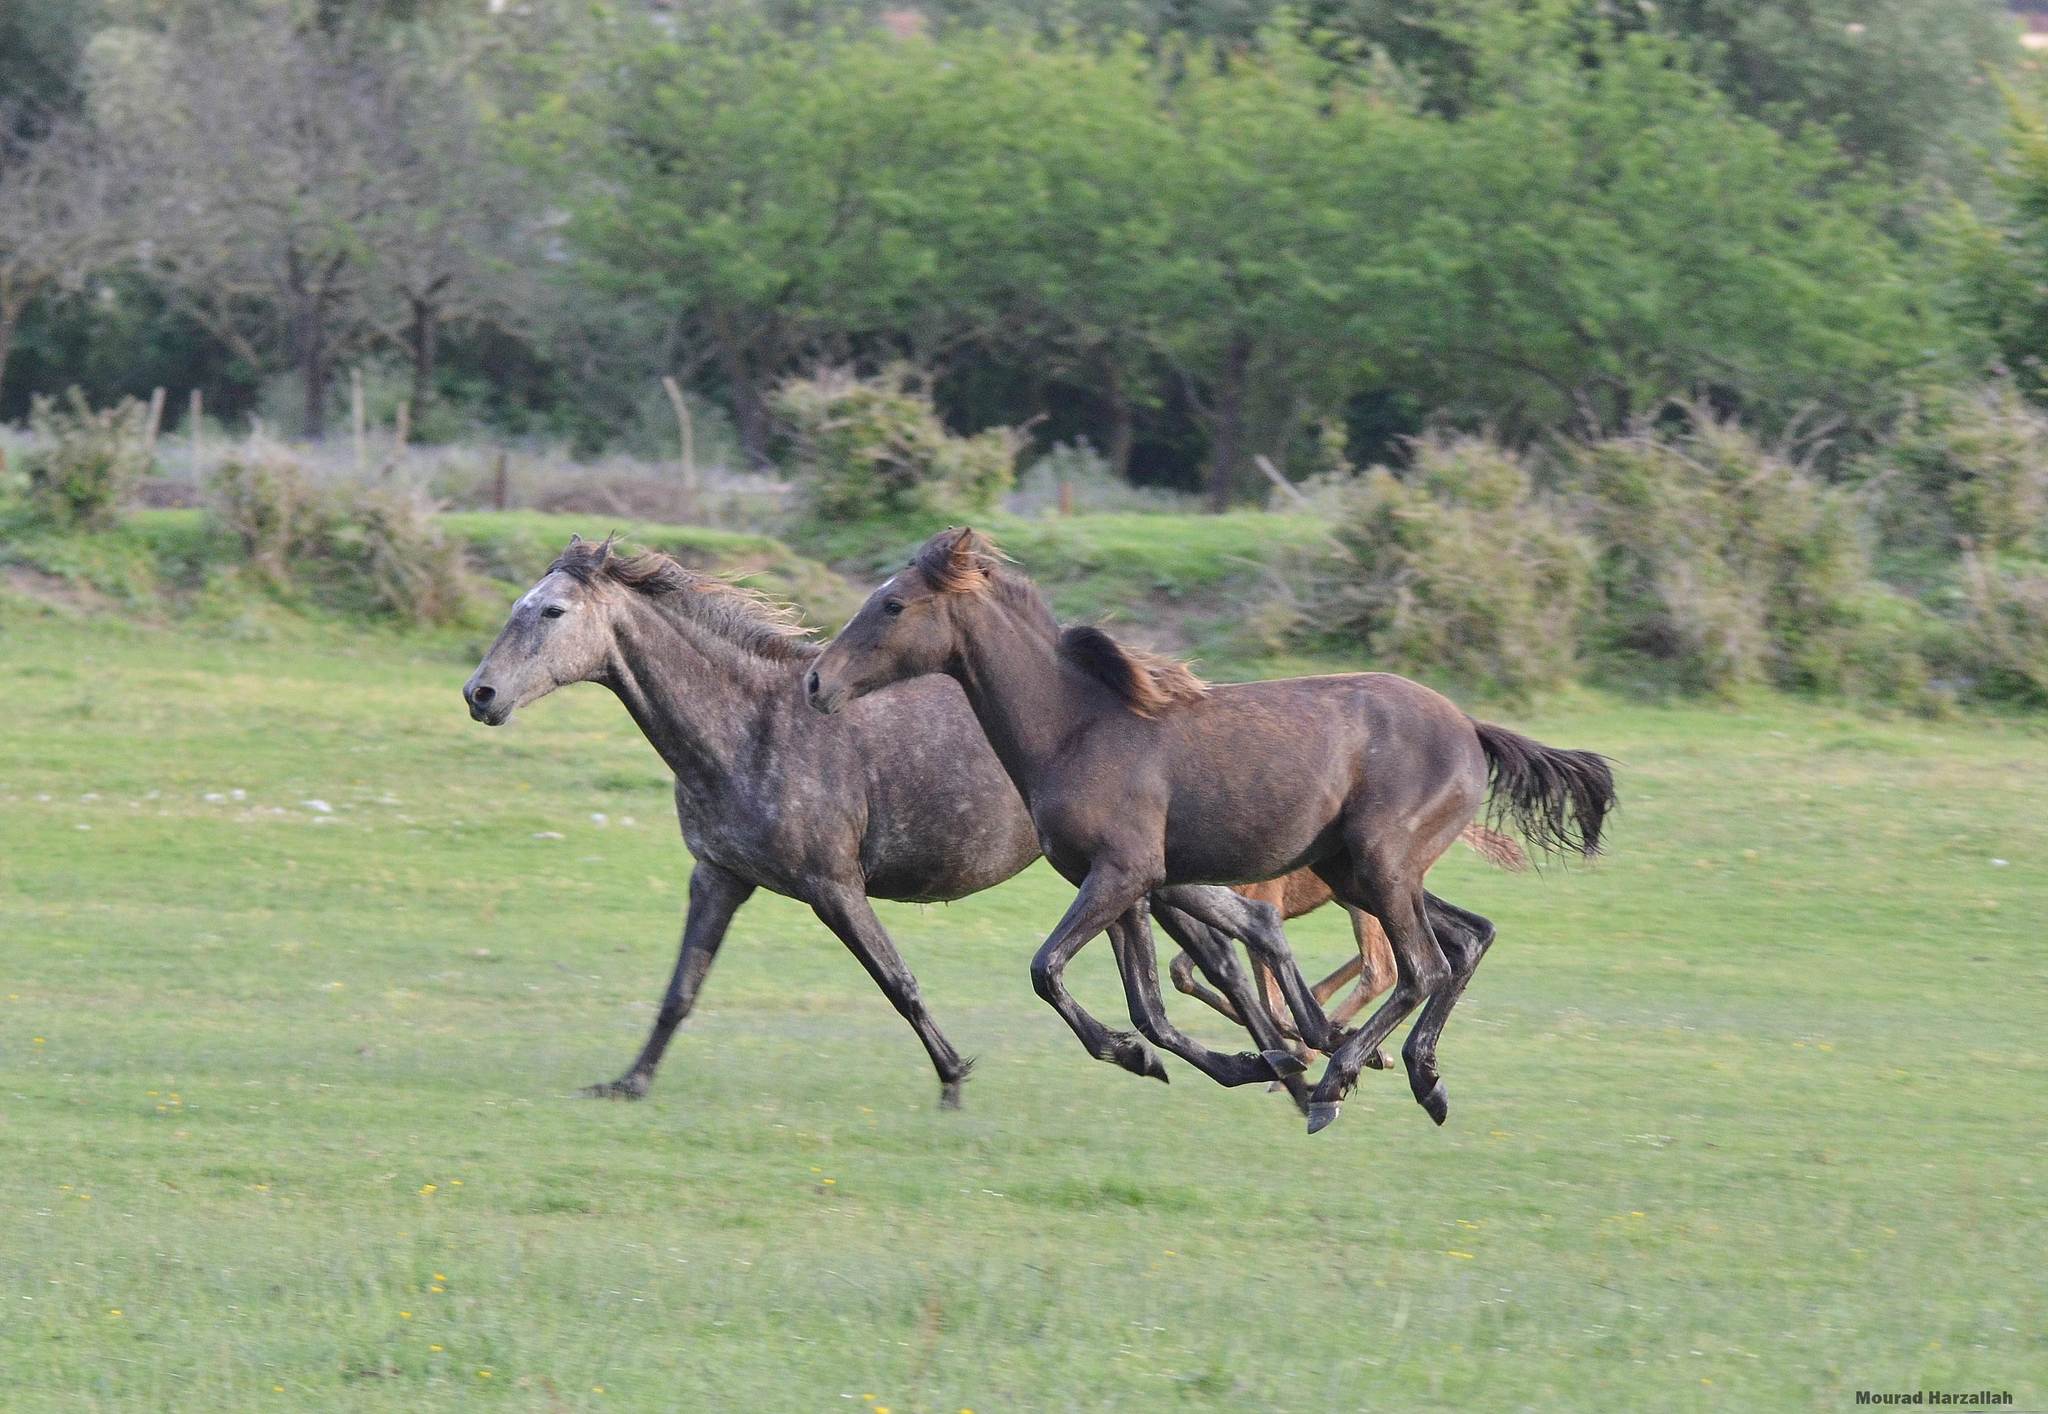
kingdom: Animalia
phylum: Chordata
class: Mammalia
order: Perissodactyla
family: Equidae
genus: Equus
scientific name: Equus caballus
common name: Horse
